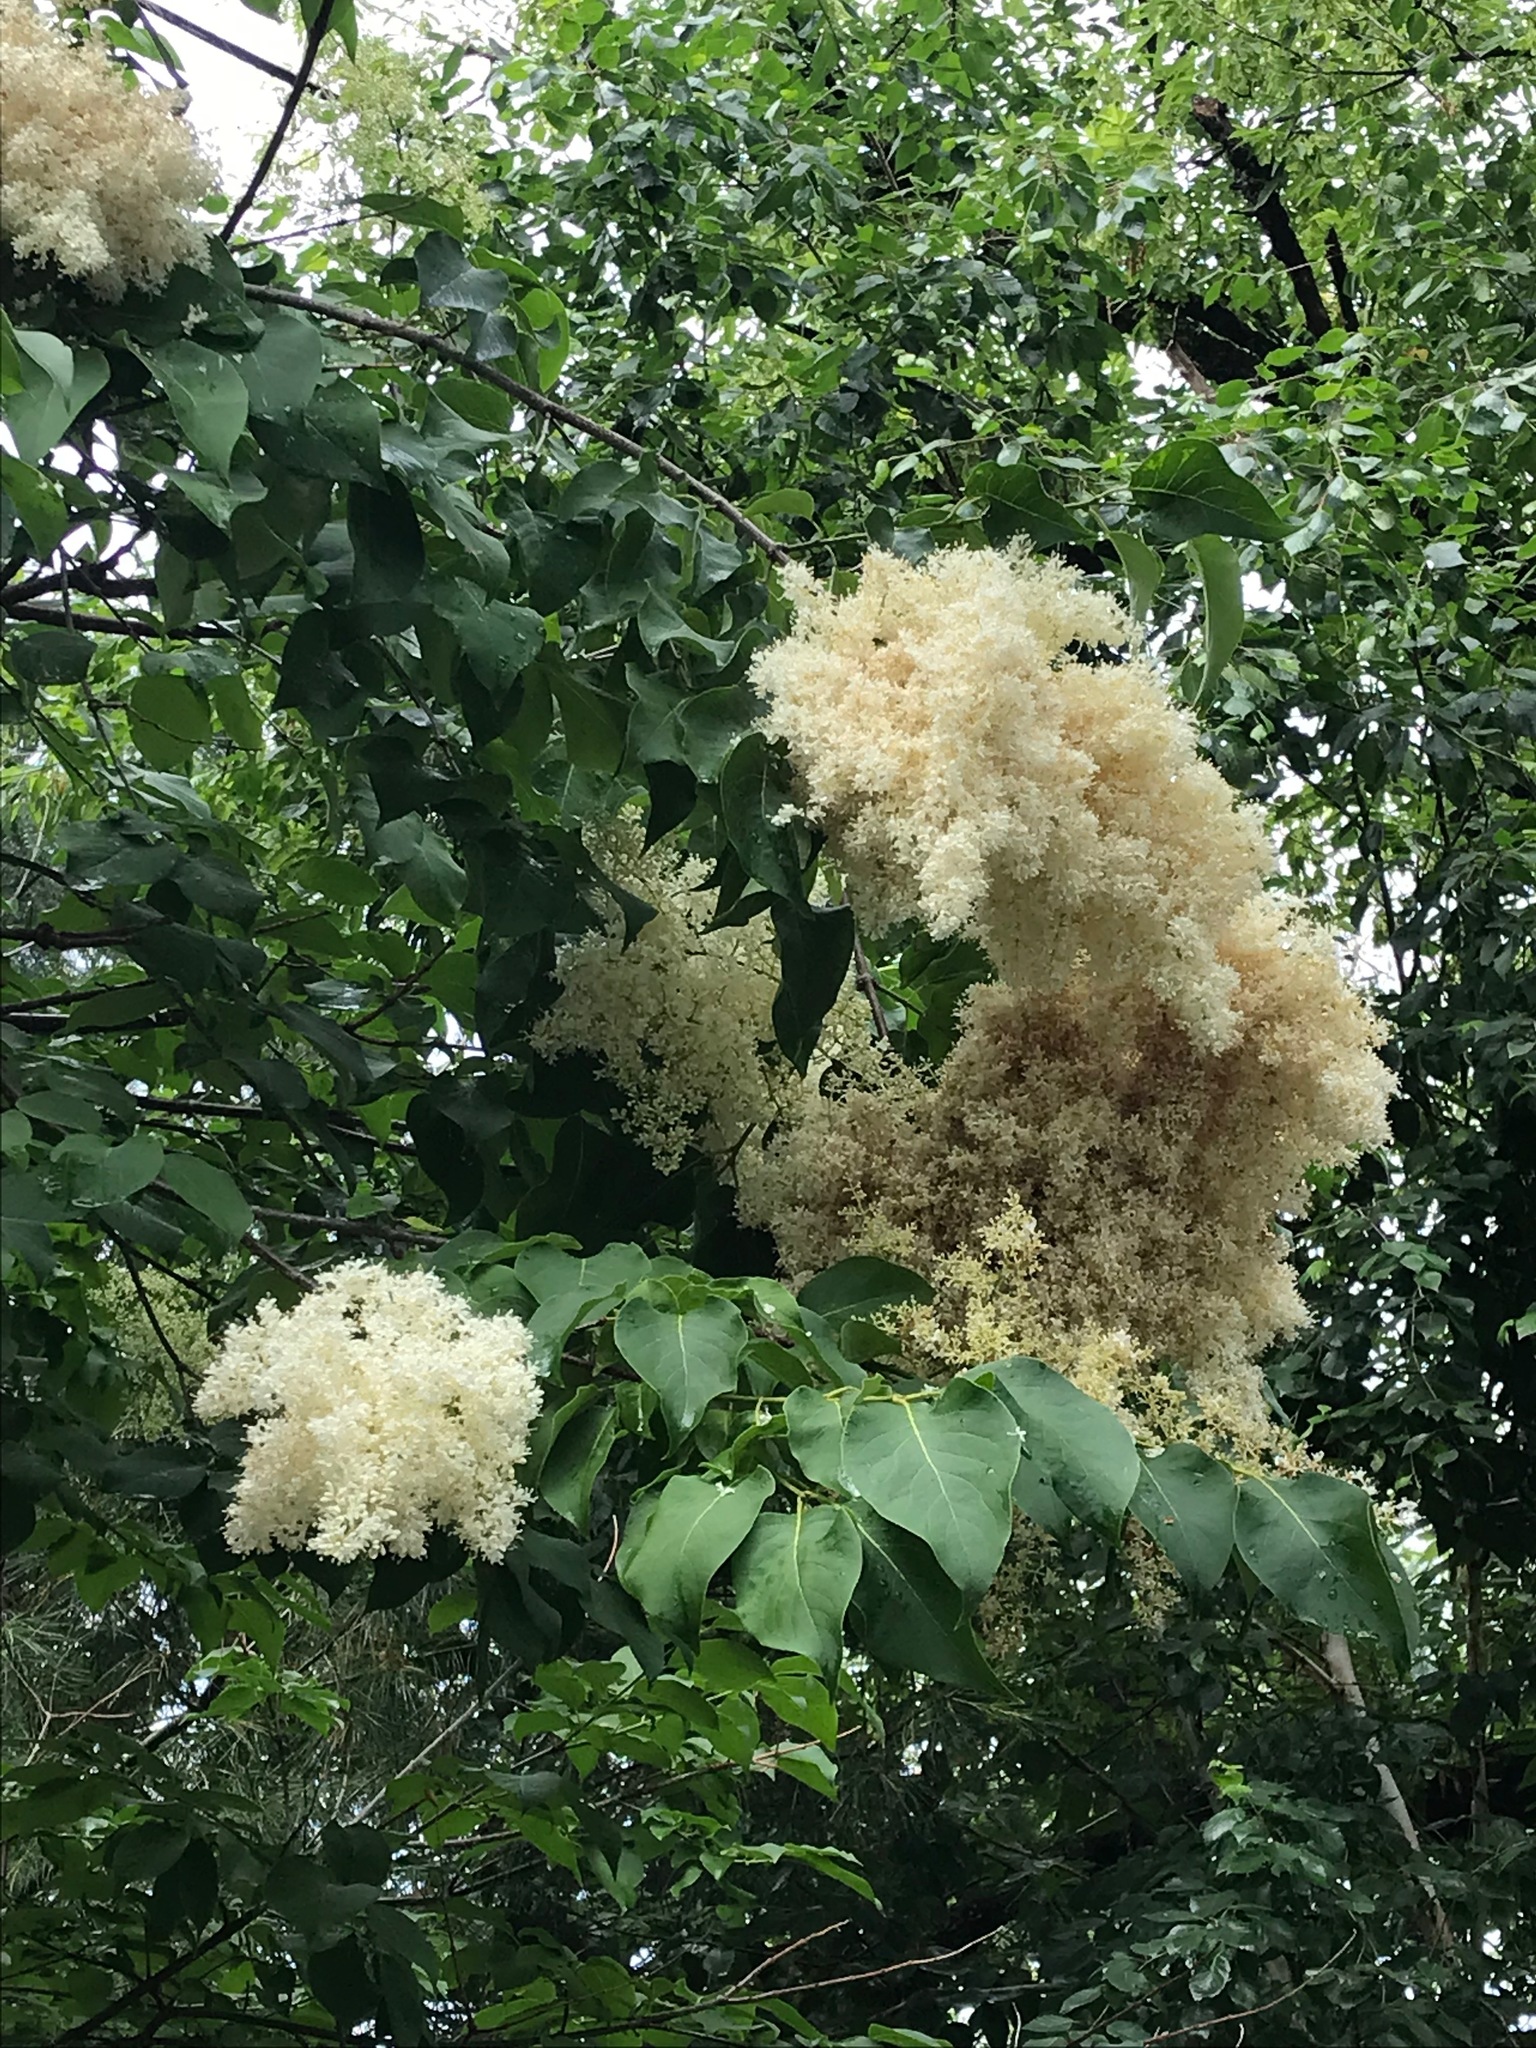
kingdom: Plantae
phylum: Tracheophyta
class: Magnoliopsida
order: Lamiales
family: Oleaceae
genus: Syringa
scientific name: Syringa reticulata
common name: Japanese tree lilac
